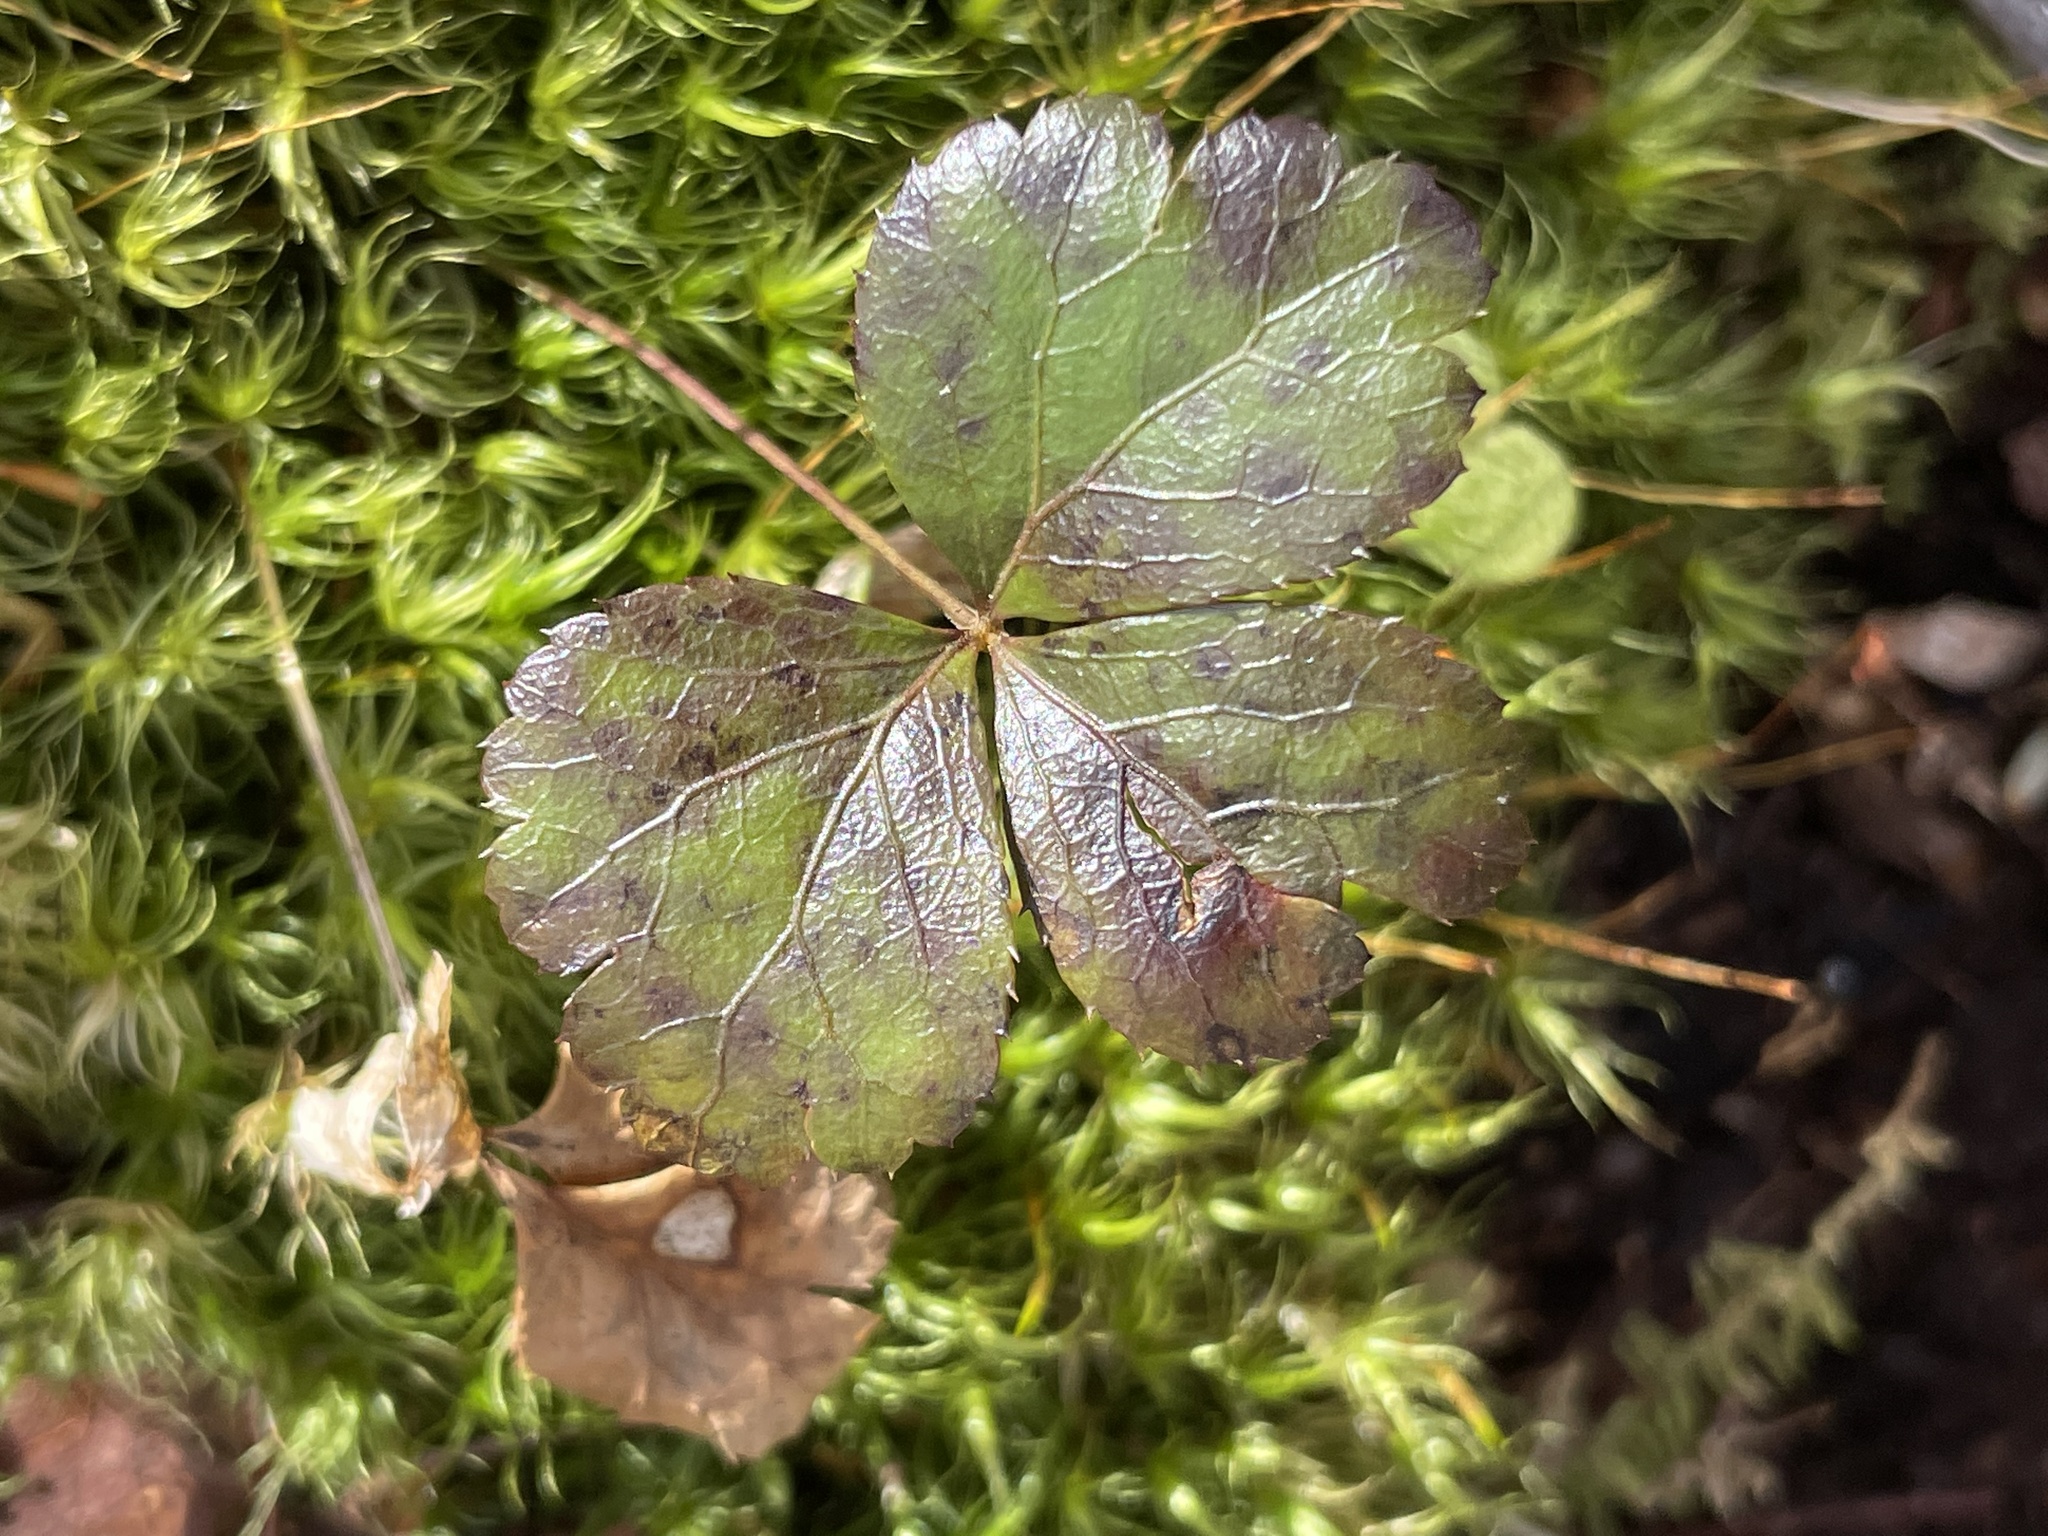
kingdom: Plantae
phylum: Tracheophyta
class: Magnoliopsida
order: Ranunculales
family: Ranunculaceae
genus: Coptis
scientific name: Coptis trifolia
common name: Canker-root
